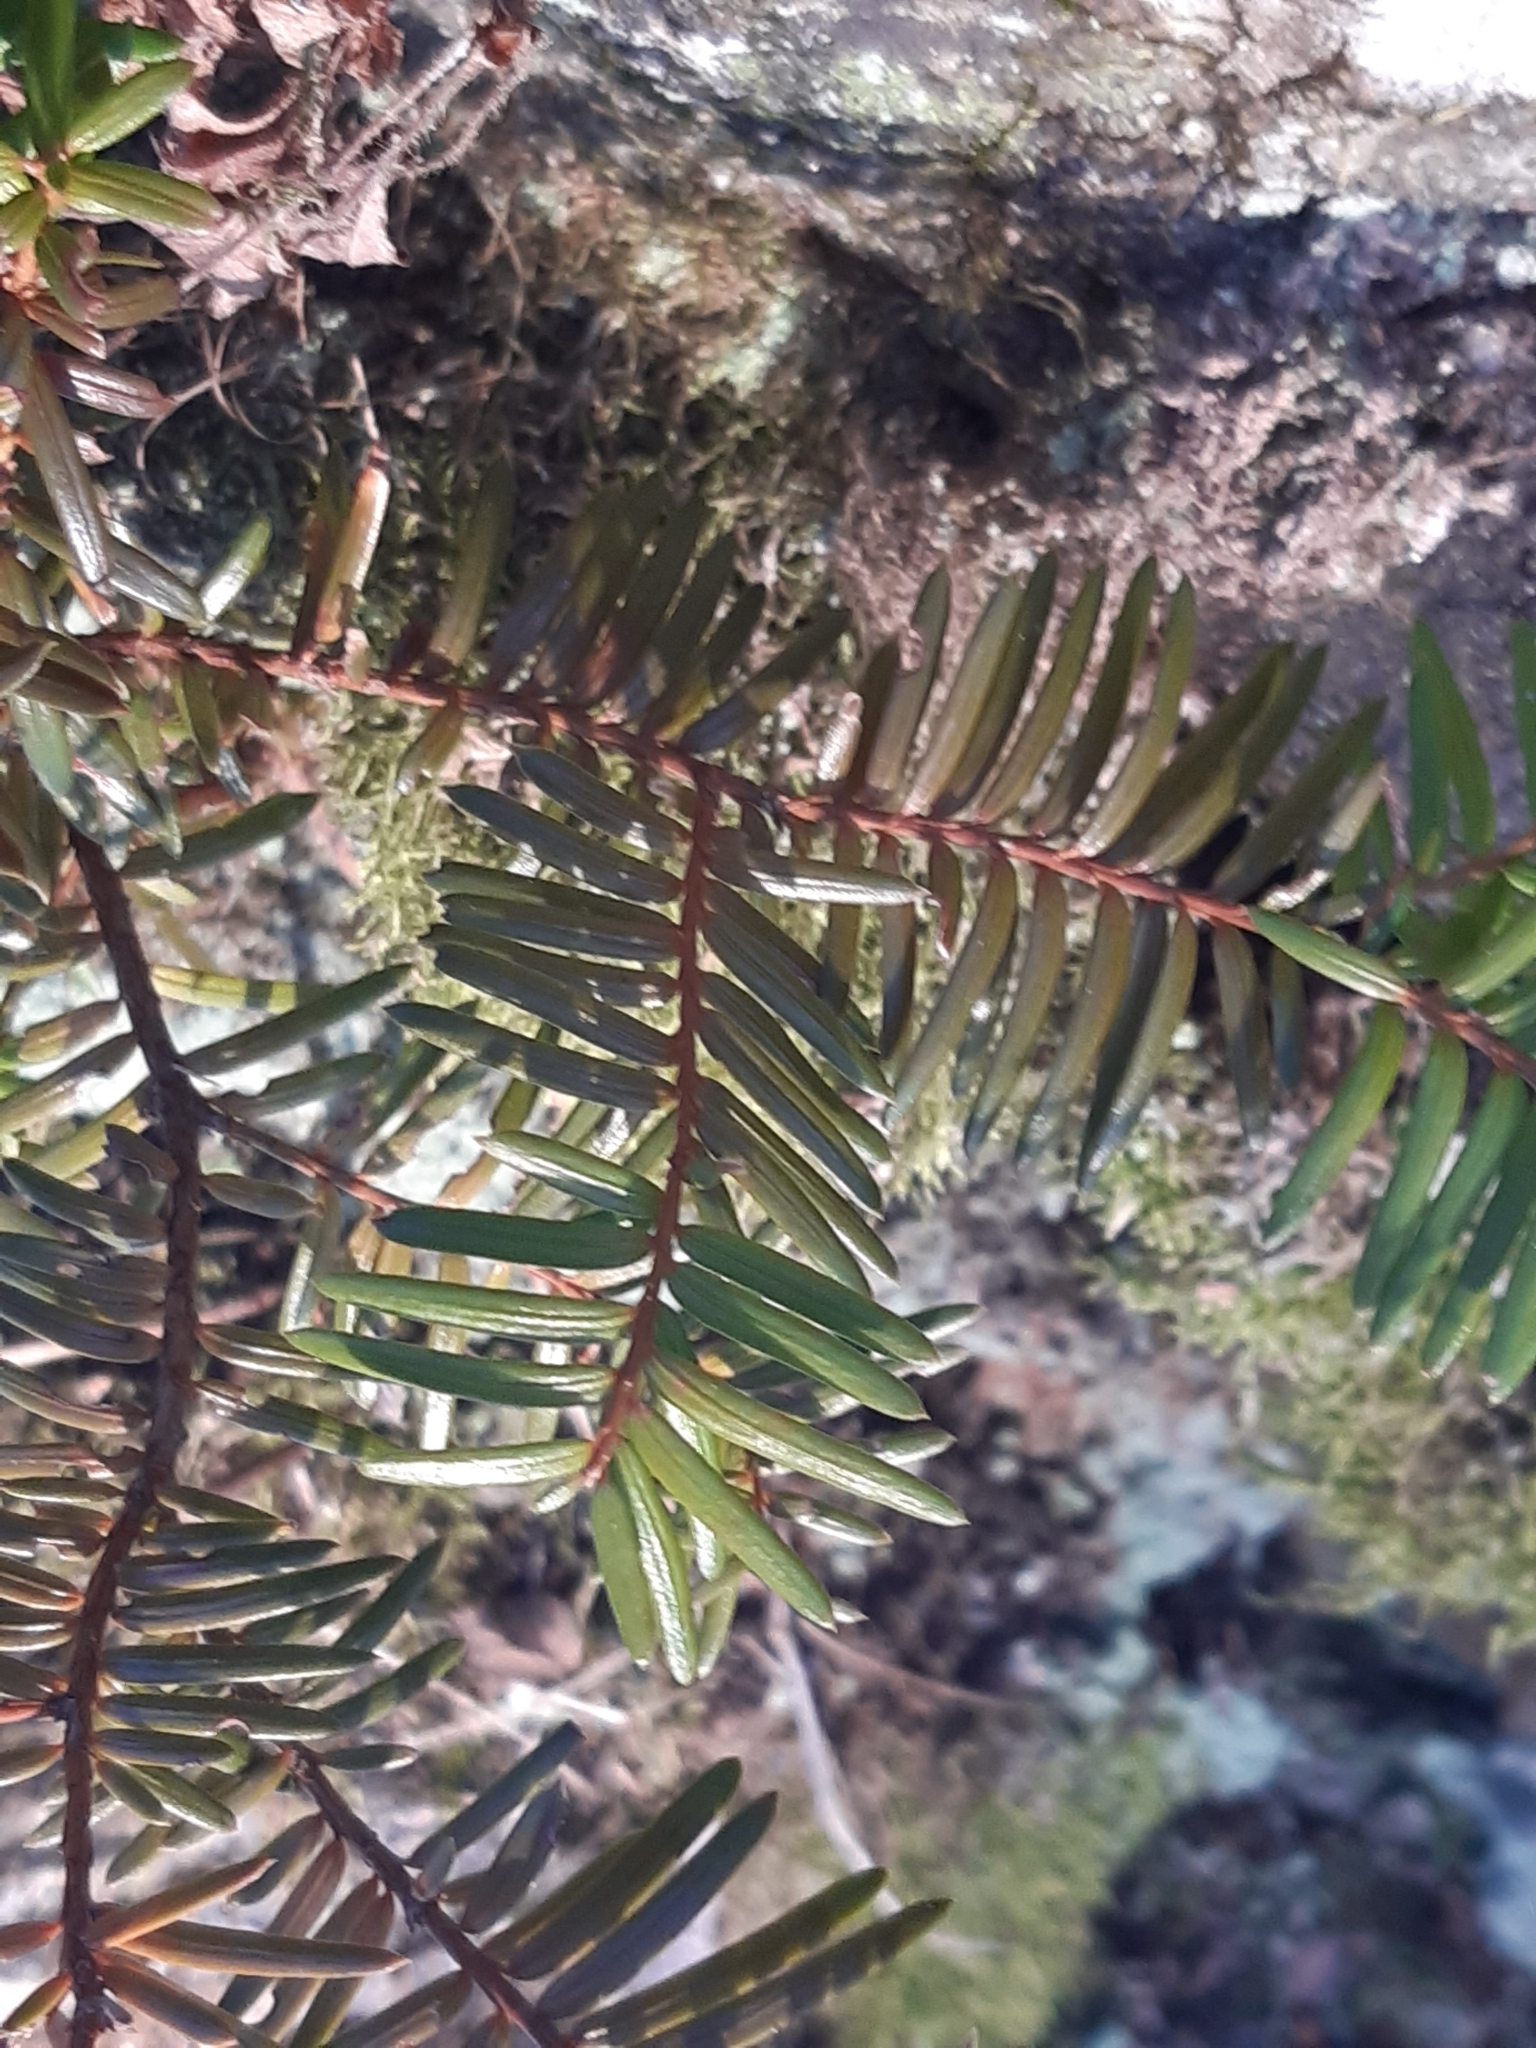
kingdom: Plantae
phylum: Tracheophyta
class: Pinopsida
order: Pinales
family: Taxaceae
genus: Taxus
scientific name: Taxus baccata
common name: Yew
